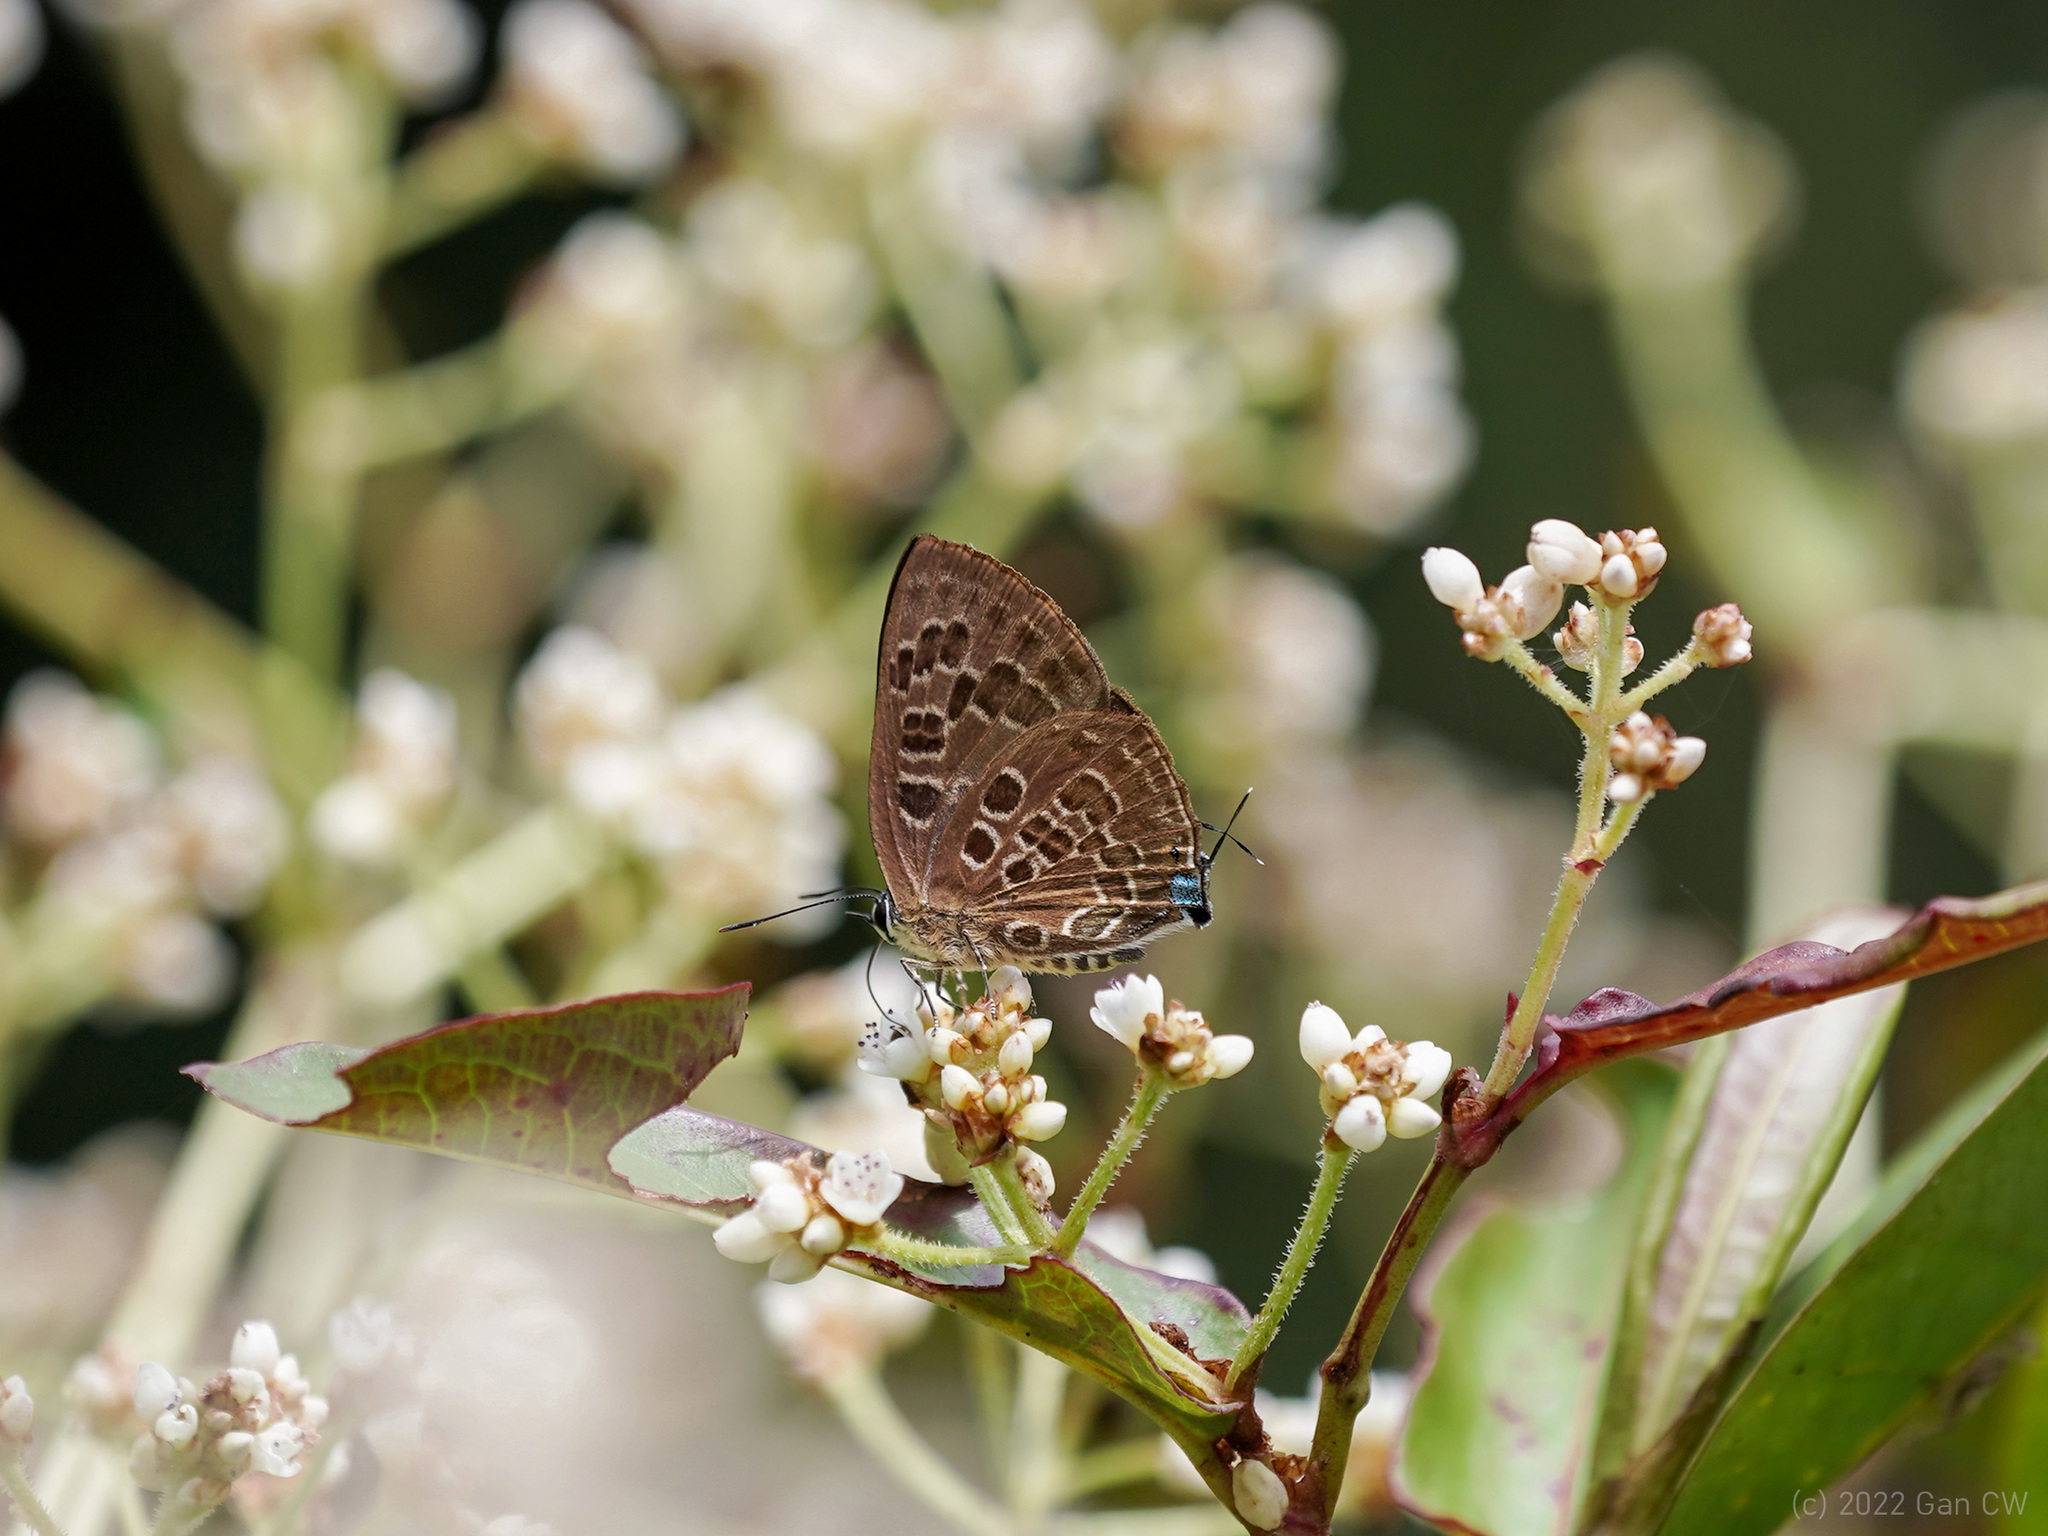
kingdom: Animalia
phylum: Arthropoda
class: Insecta
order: Lepidoptera
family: Lycaenidae
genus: Deudorix
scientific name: Deudorix
